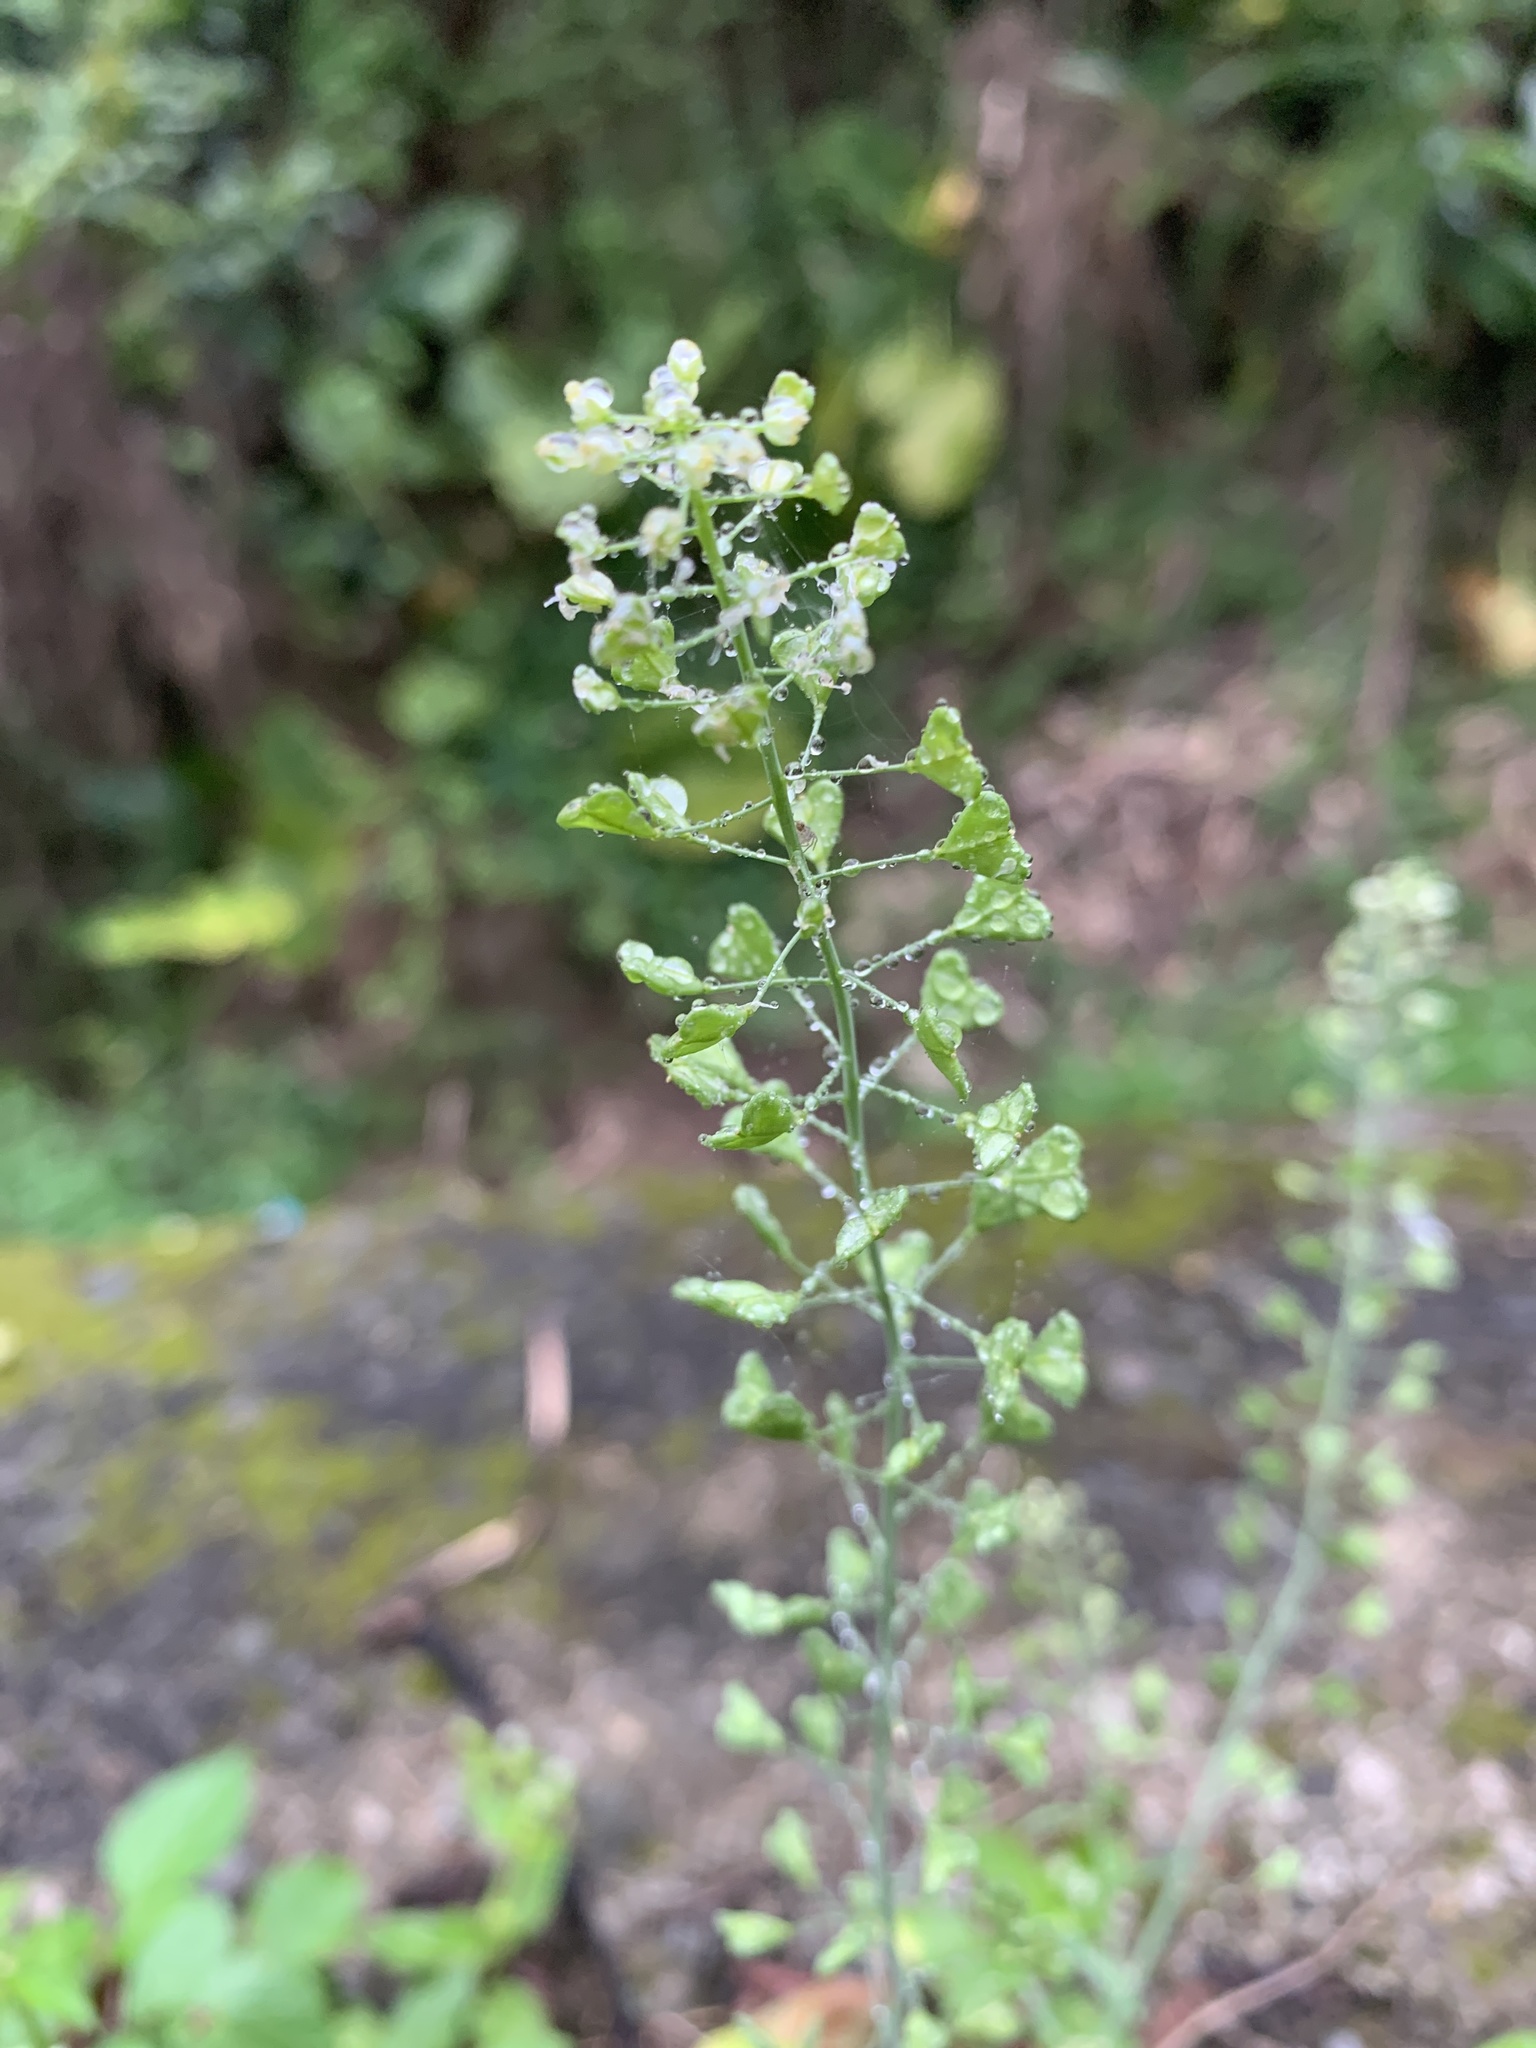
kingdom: Plantae
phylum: Tracheophyta
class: Magnoliopsida
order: Brassicales
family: Brassicaceae
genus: Capsella
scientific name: Capsella bursa-pastoris
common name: Shepherd's purse
